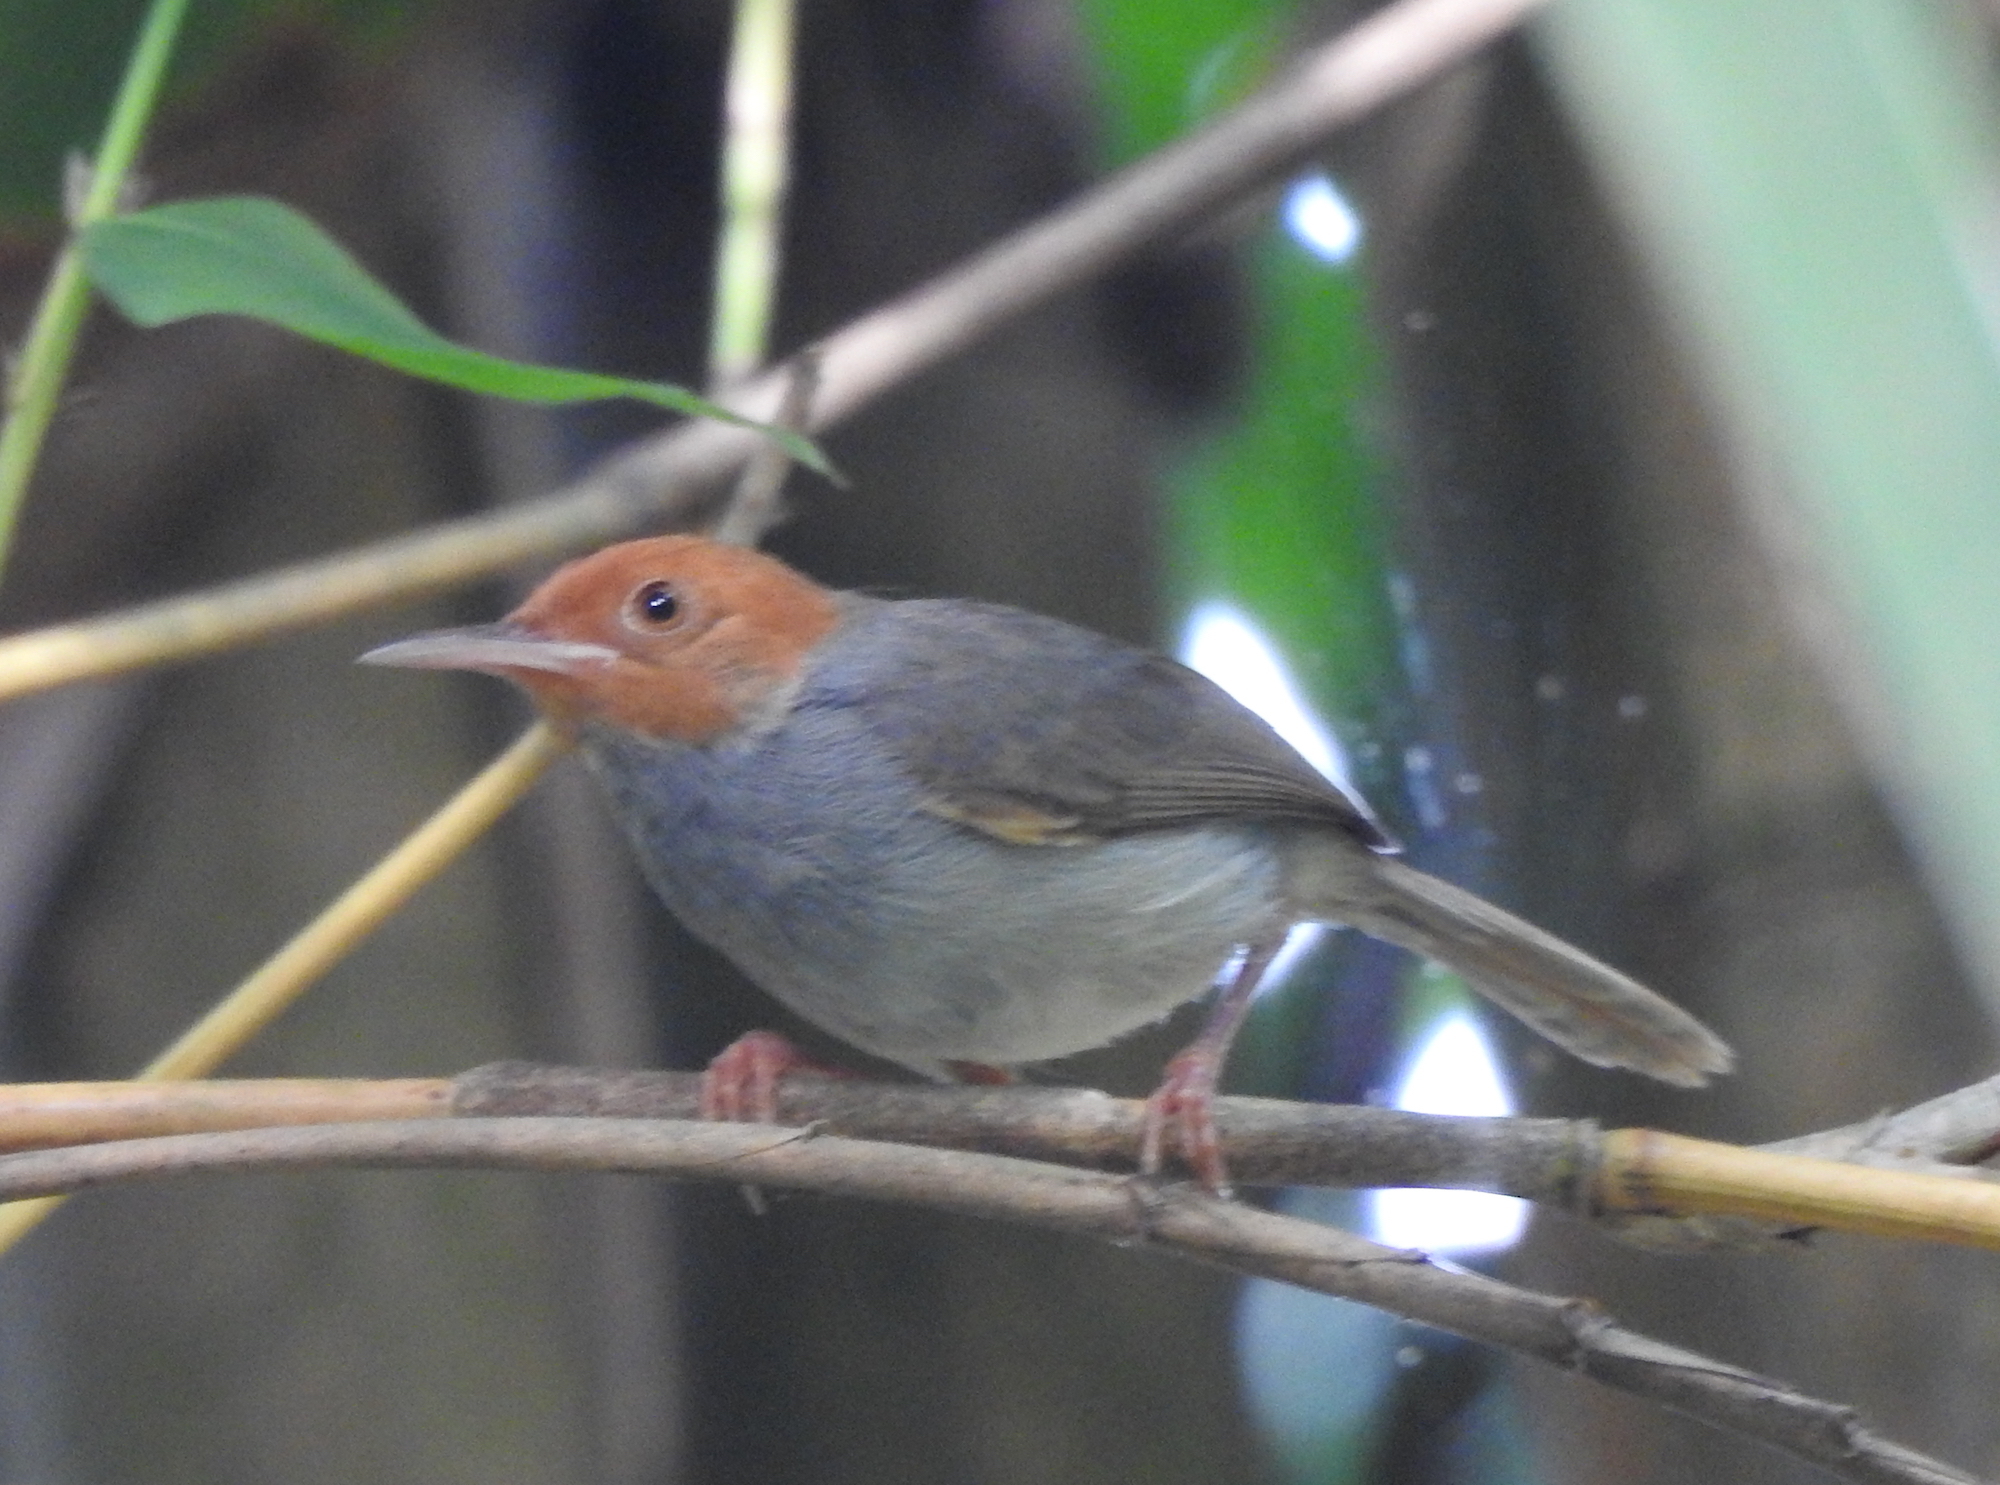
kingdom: Animalia
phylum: Chordata
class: Aves
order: Passeriformes
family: Cisticolidae
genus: Orthotomus
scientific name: Orthotomus ruficeps
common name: Ashy tailorbird
